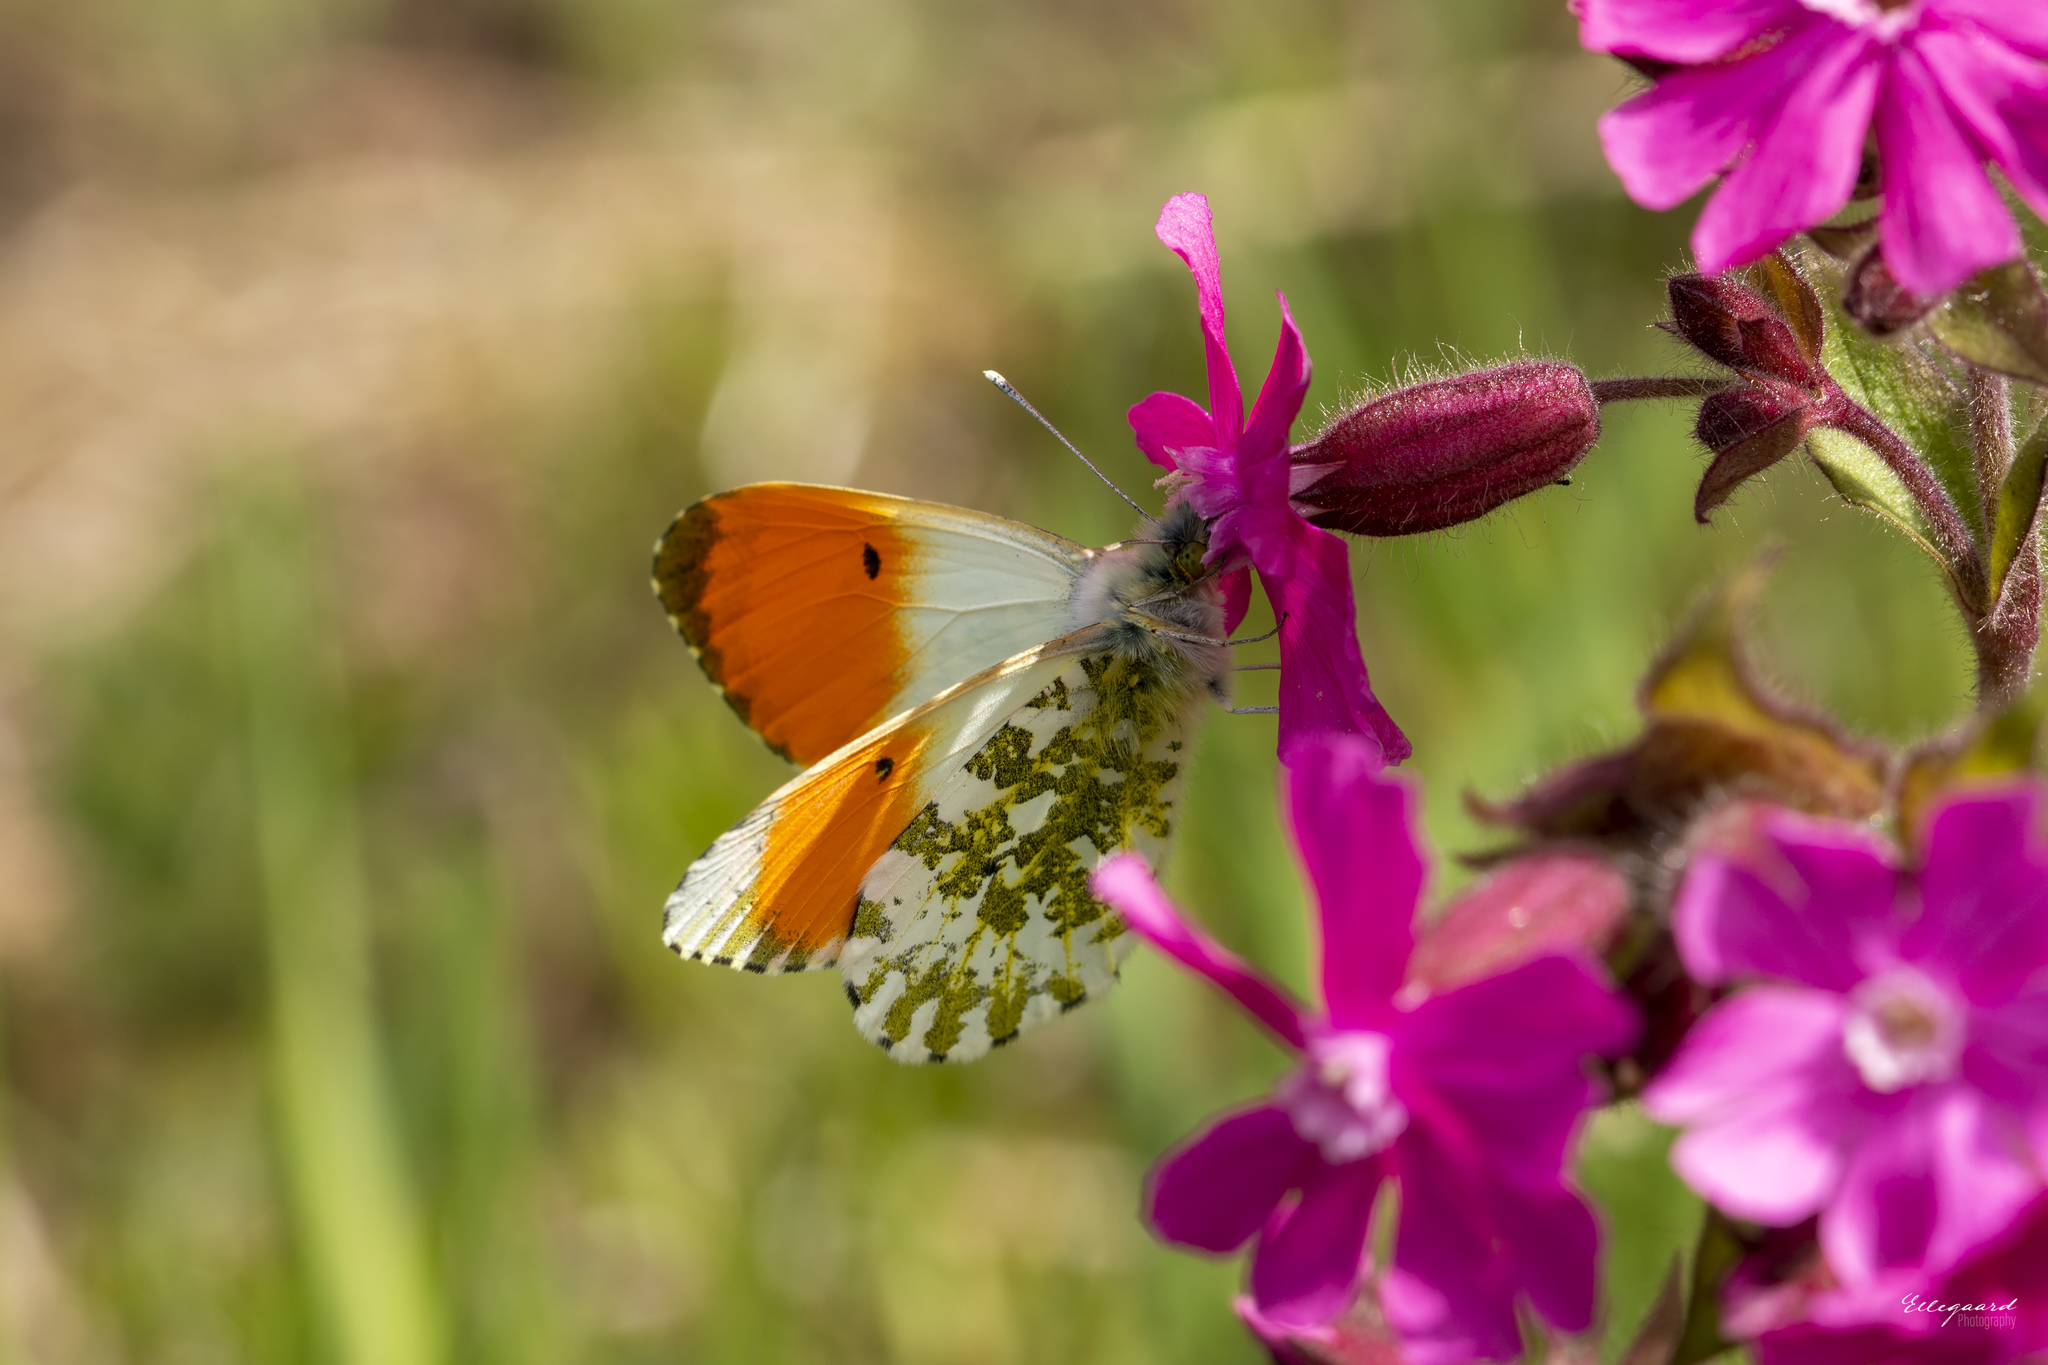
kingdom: Animalia
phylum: Arthropoda
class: Insecta
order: Lepidoptera
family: Pieridae
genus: Anthocharis
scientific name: Anthocharis cardamines
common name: Orange-tip
